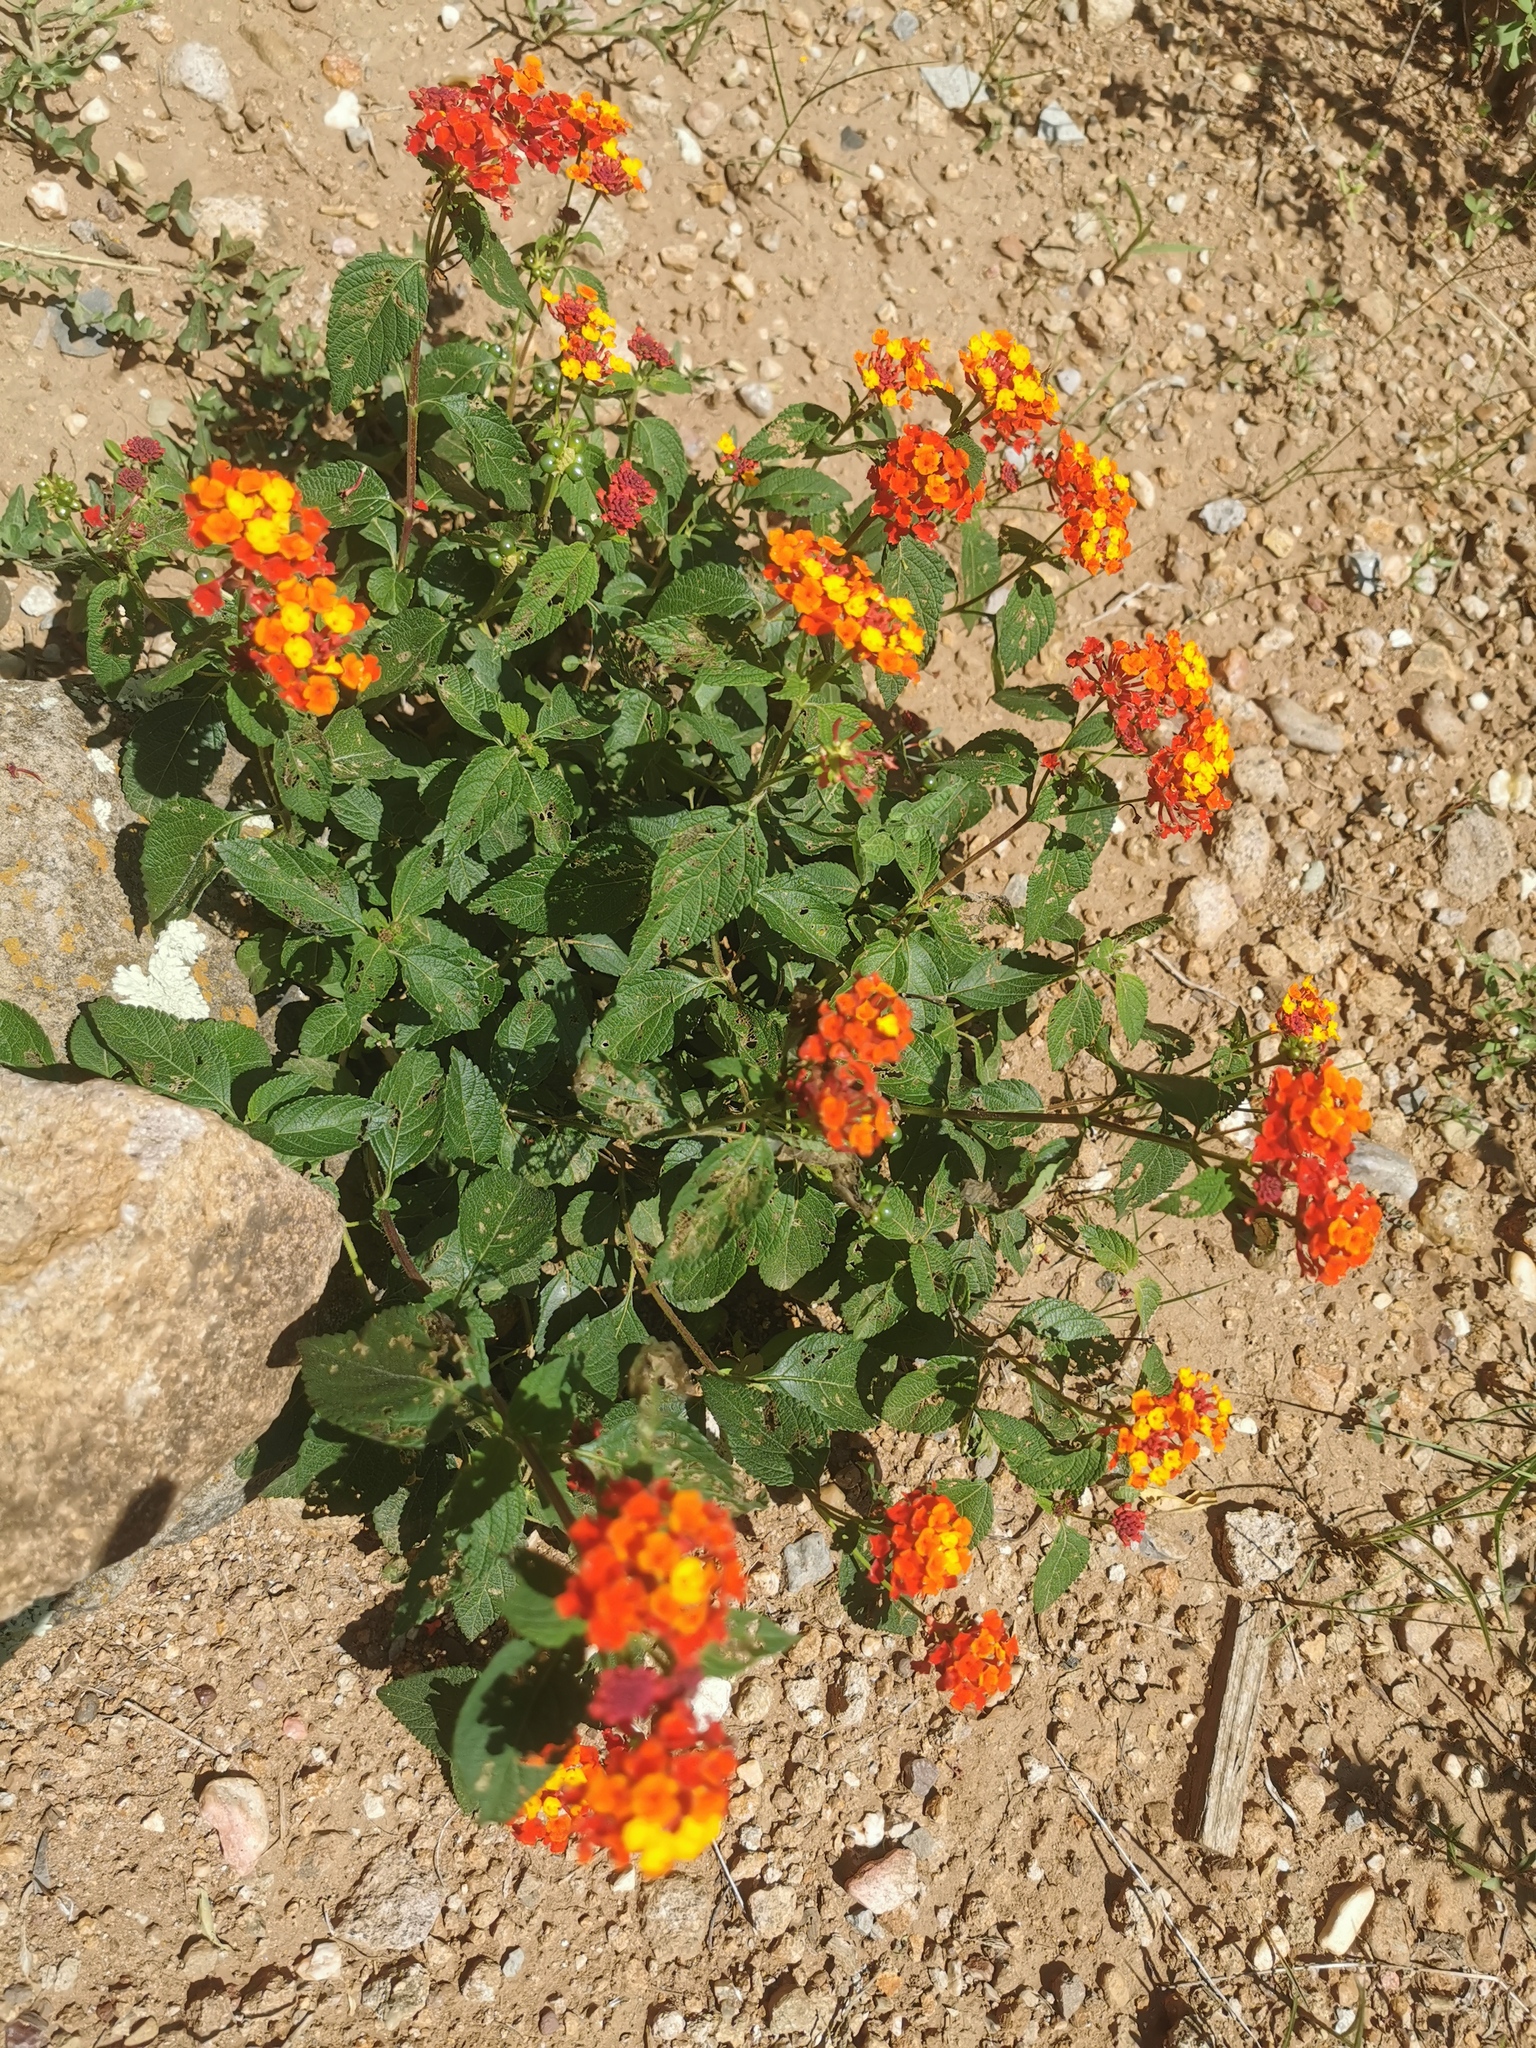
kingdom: Plantae
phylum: Tracheophyta
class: Magnoliopsida
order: Lamiales
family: Verbenaceae
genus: Lantana
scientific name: Lantana camara
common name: Lantana
